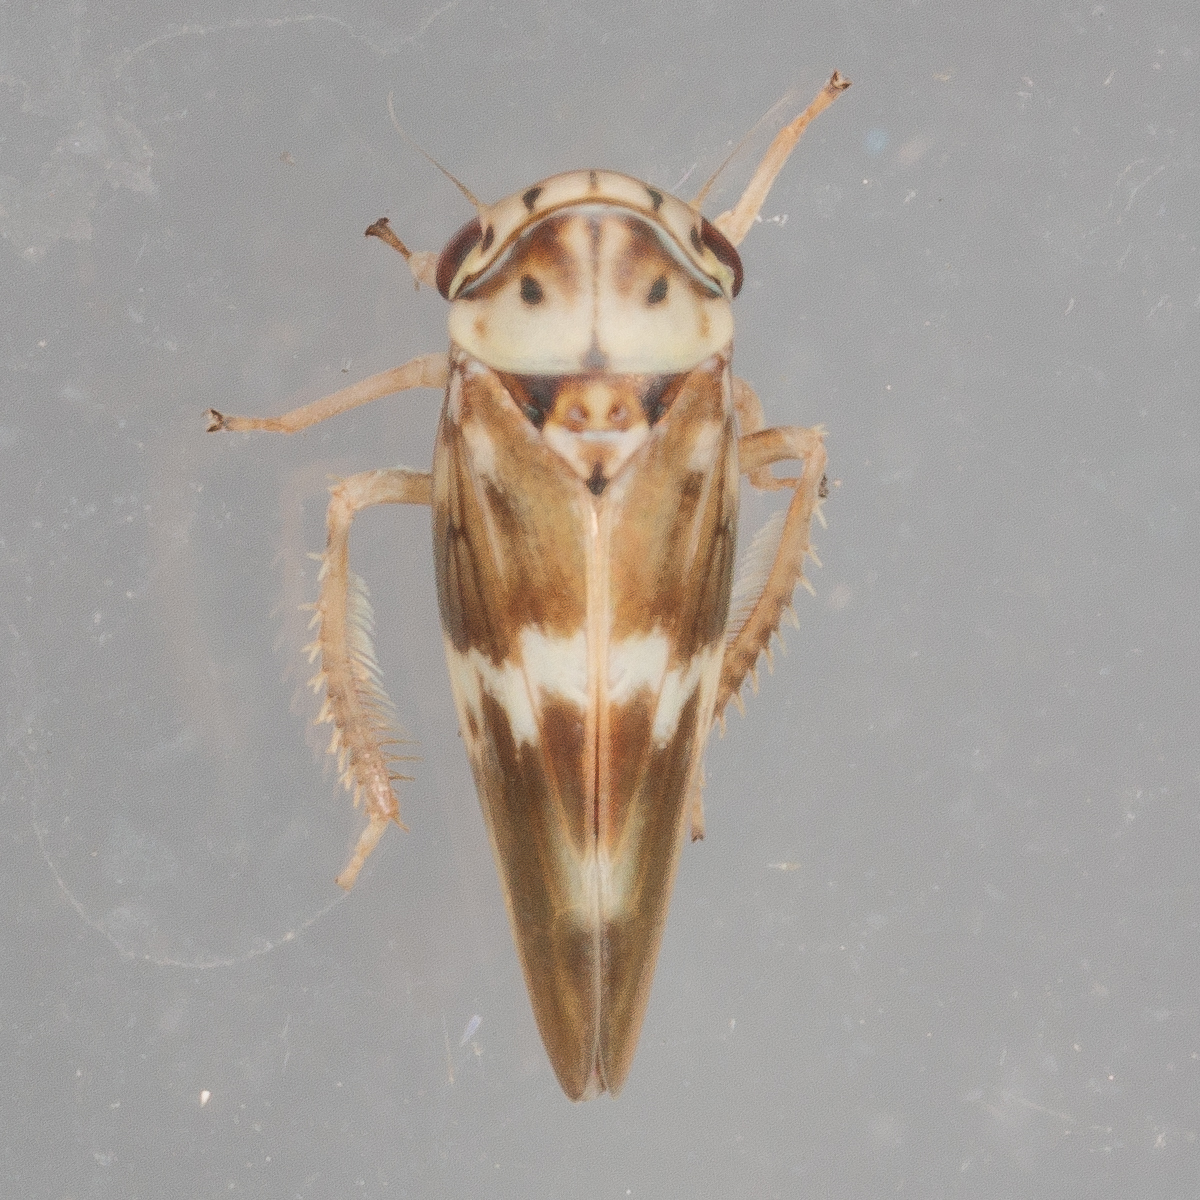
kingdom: Animalia
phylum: Arthropoda
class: Insecta
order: Hemiptera
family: Cicadellidae
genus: Agalliopsis
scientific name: Agalliopsis cervina
